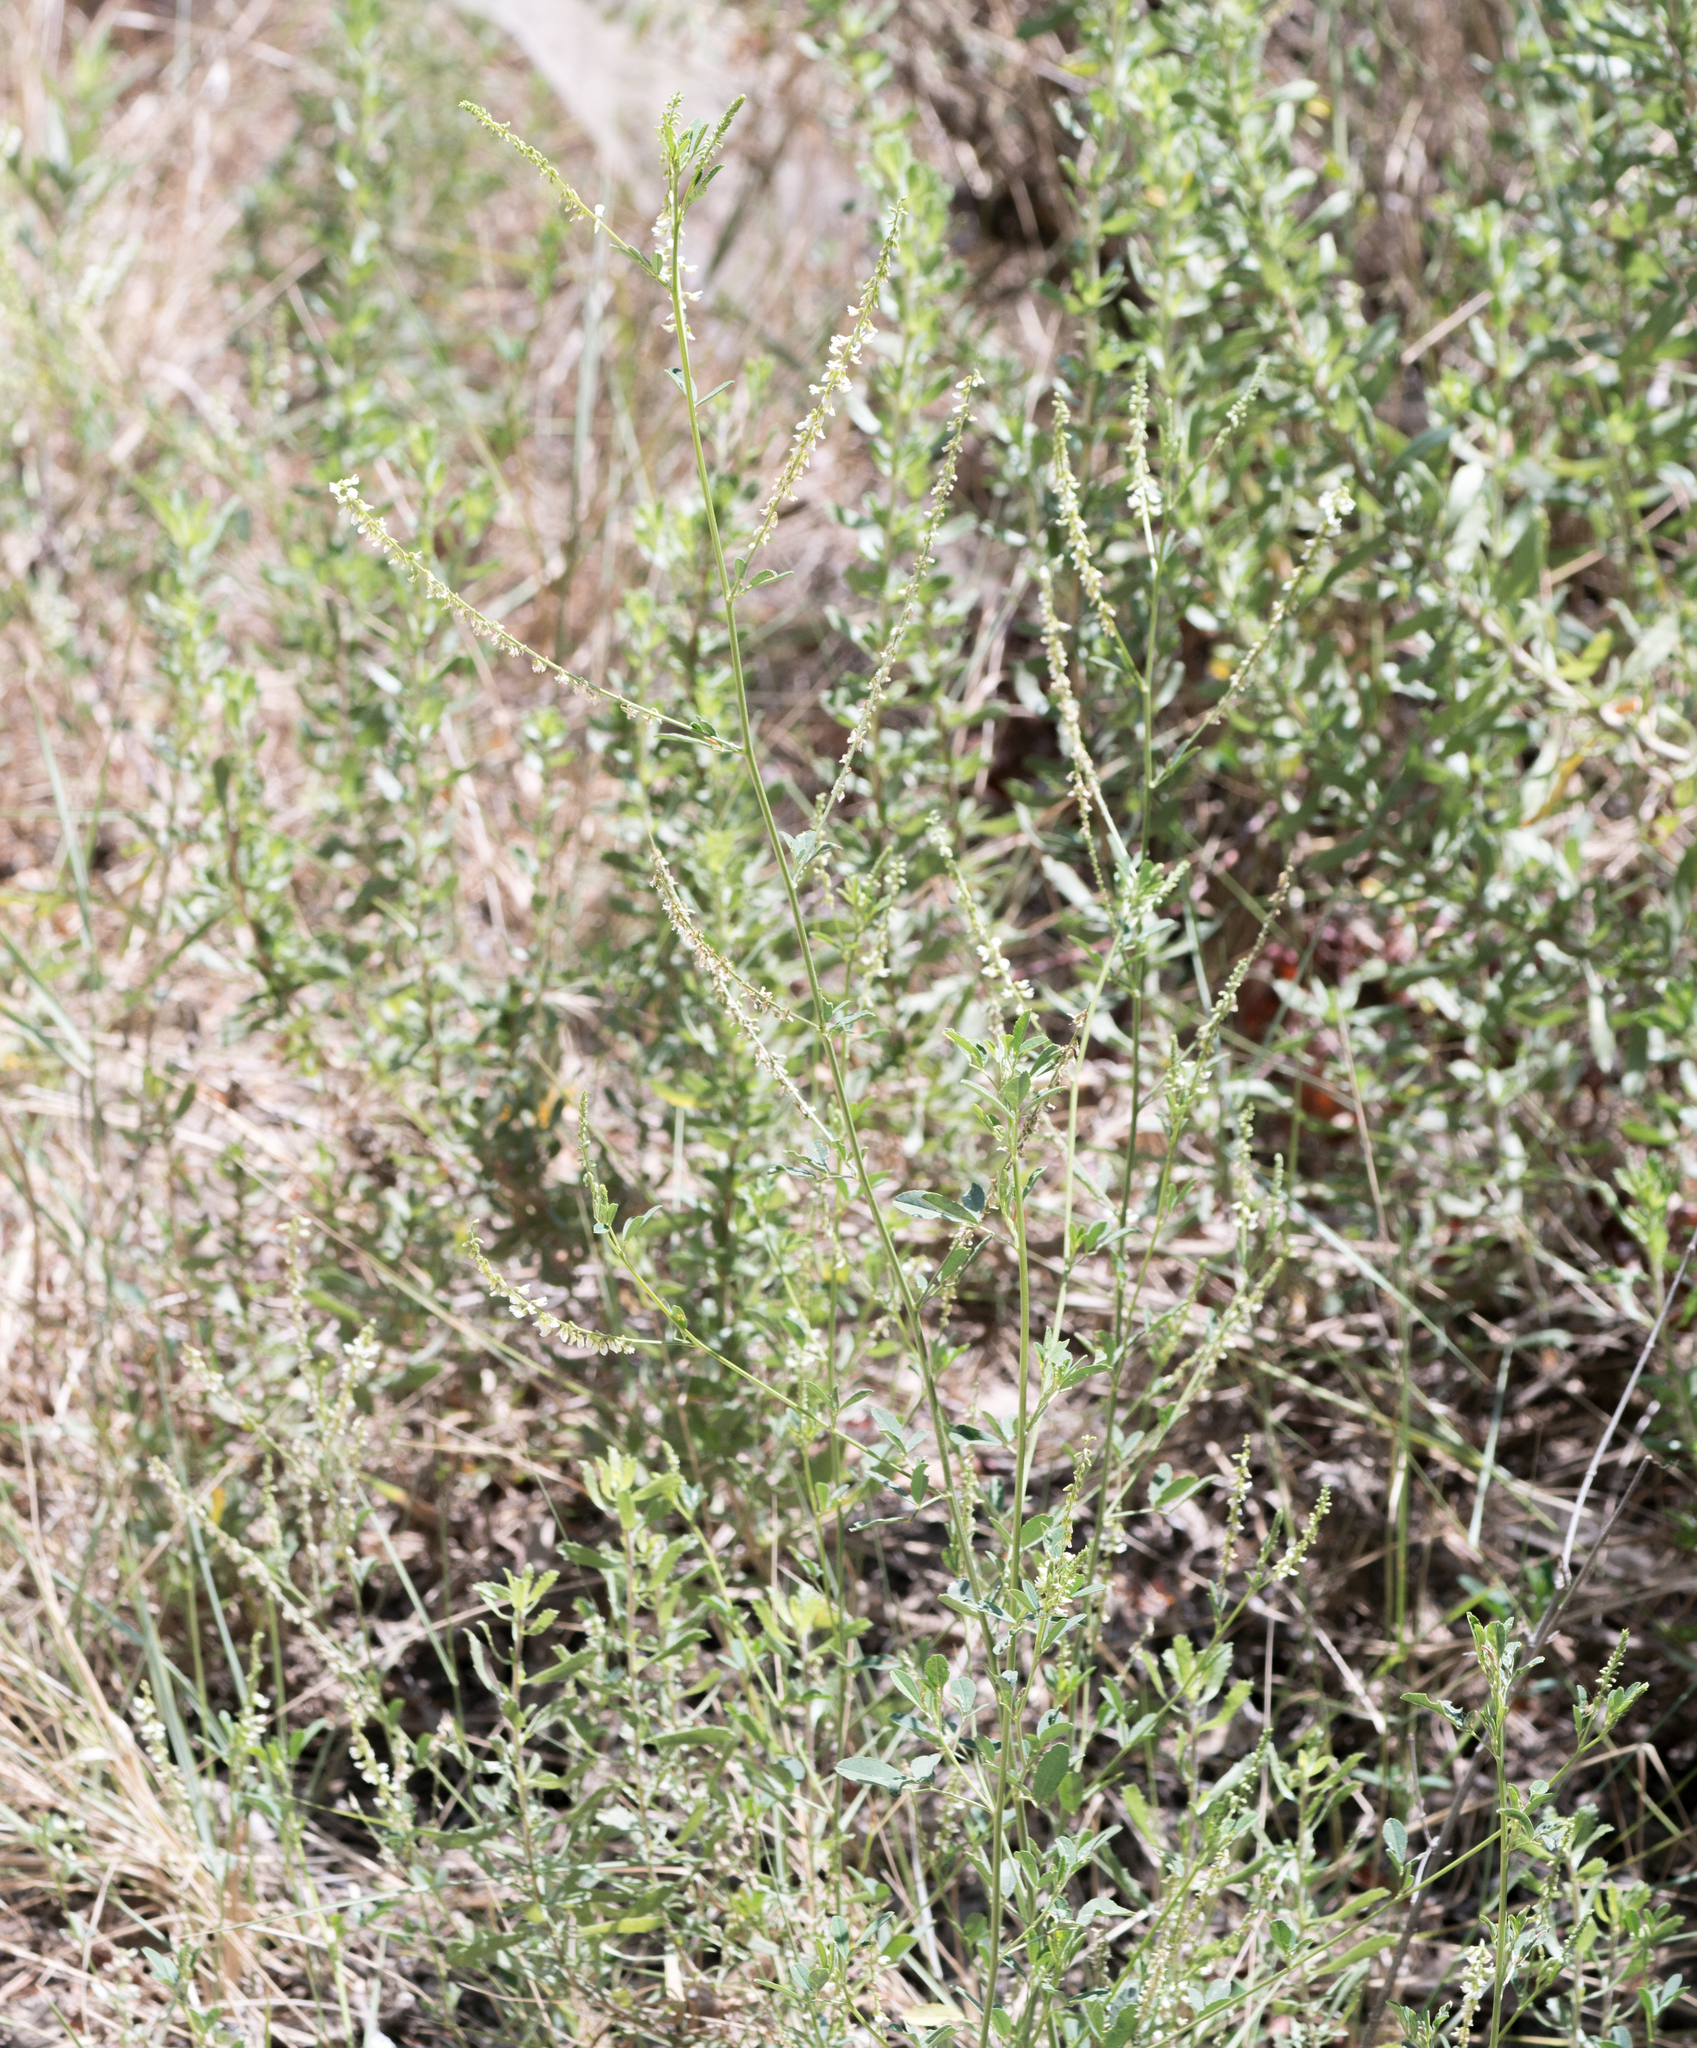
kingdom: Plantae
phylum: Tracheophyta
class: Magnoliopsida
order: Fabales
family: Fabaceae
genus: Melilotus
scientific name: Melilotus albus
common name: White melilot
